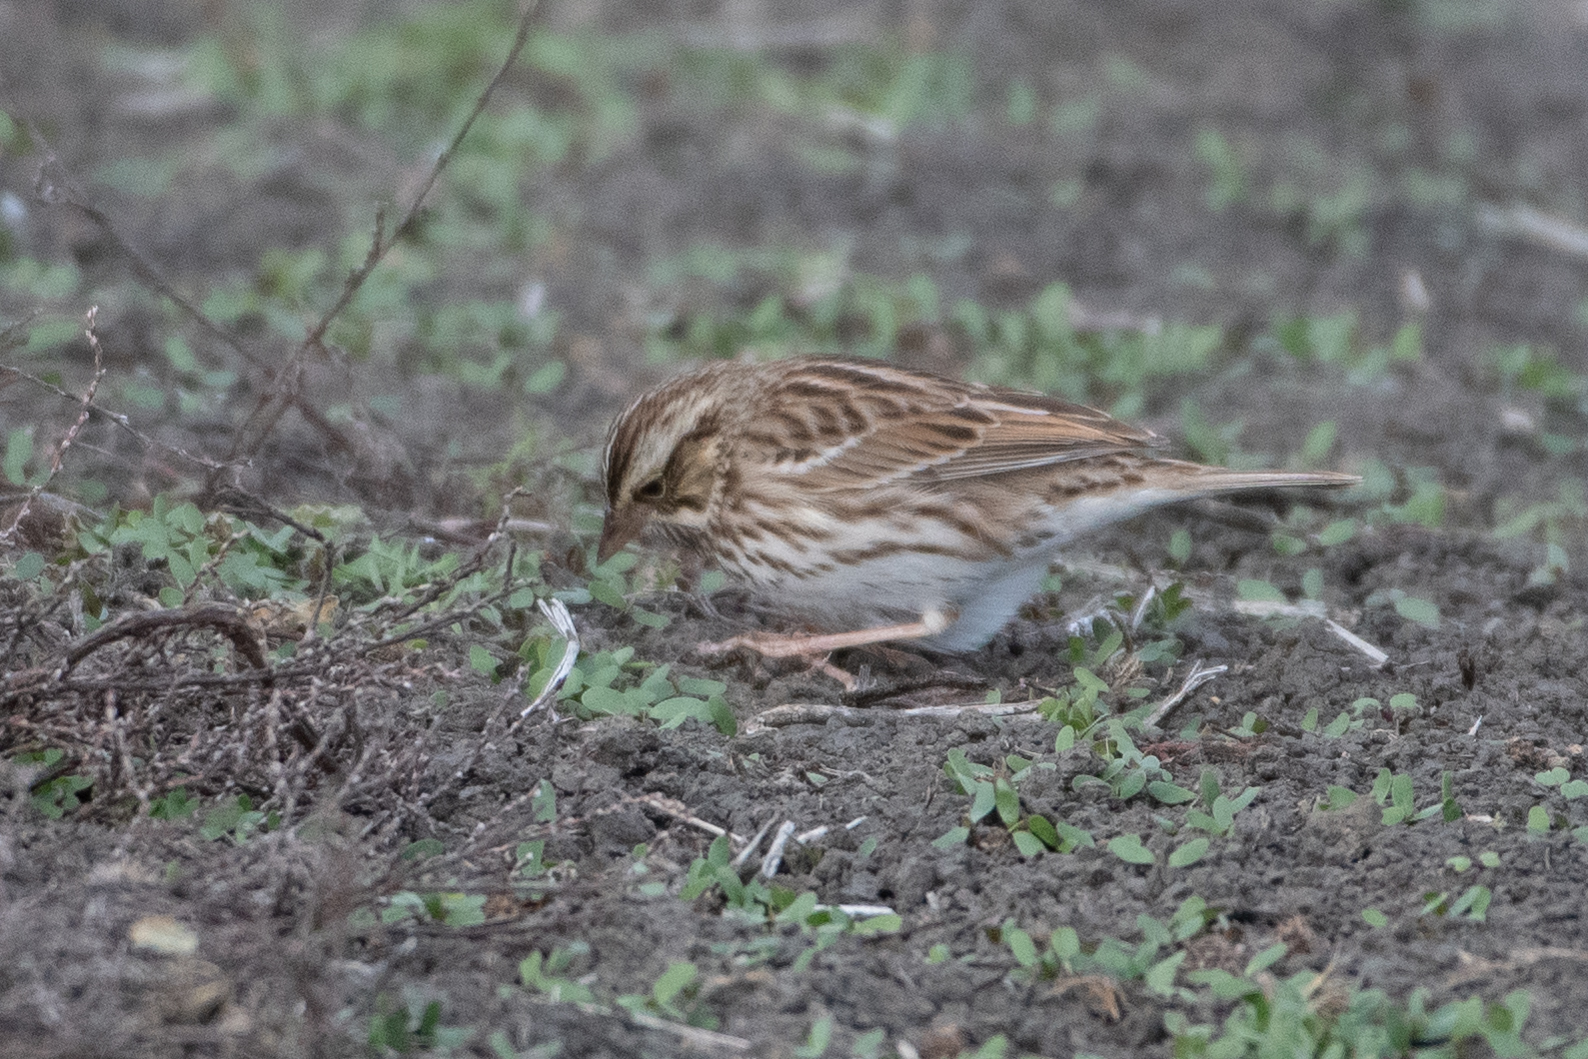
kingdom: Animalia
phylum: Chordata
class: Aves
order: Passeriformes
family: Passerellidae
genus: Passerculus
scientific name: Passerculus sandwichensis
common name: Savannah sparrow
